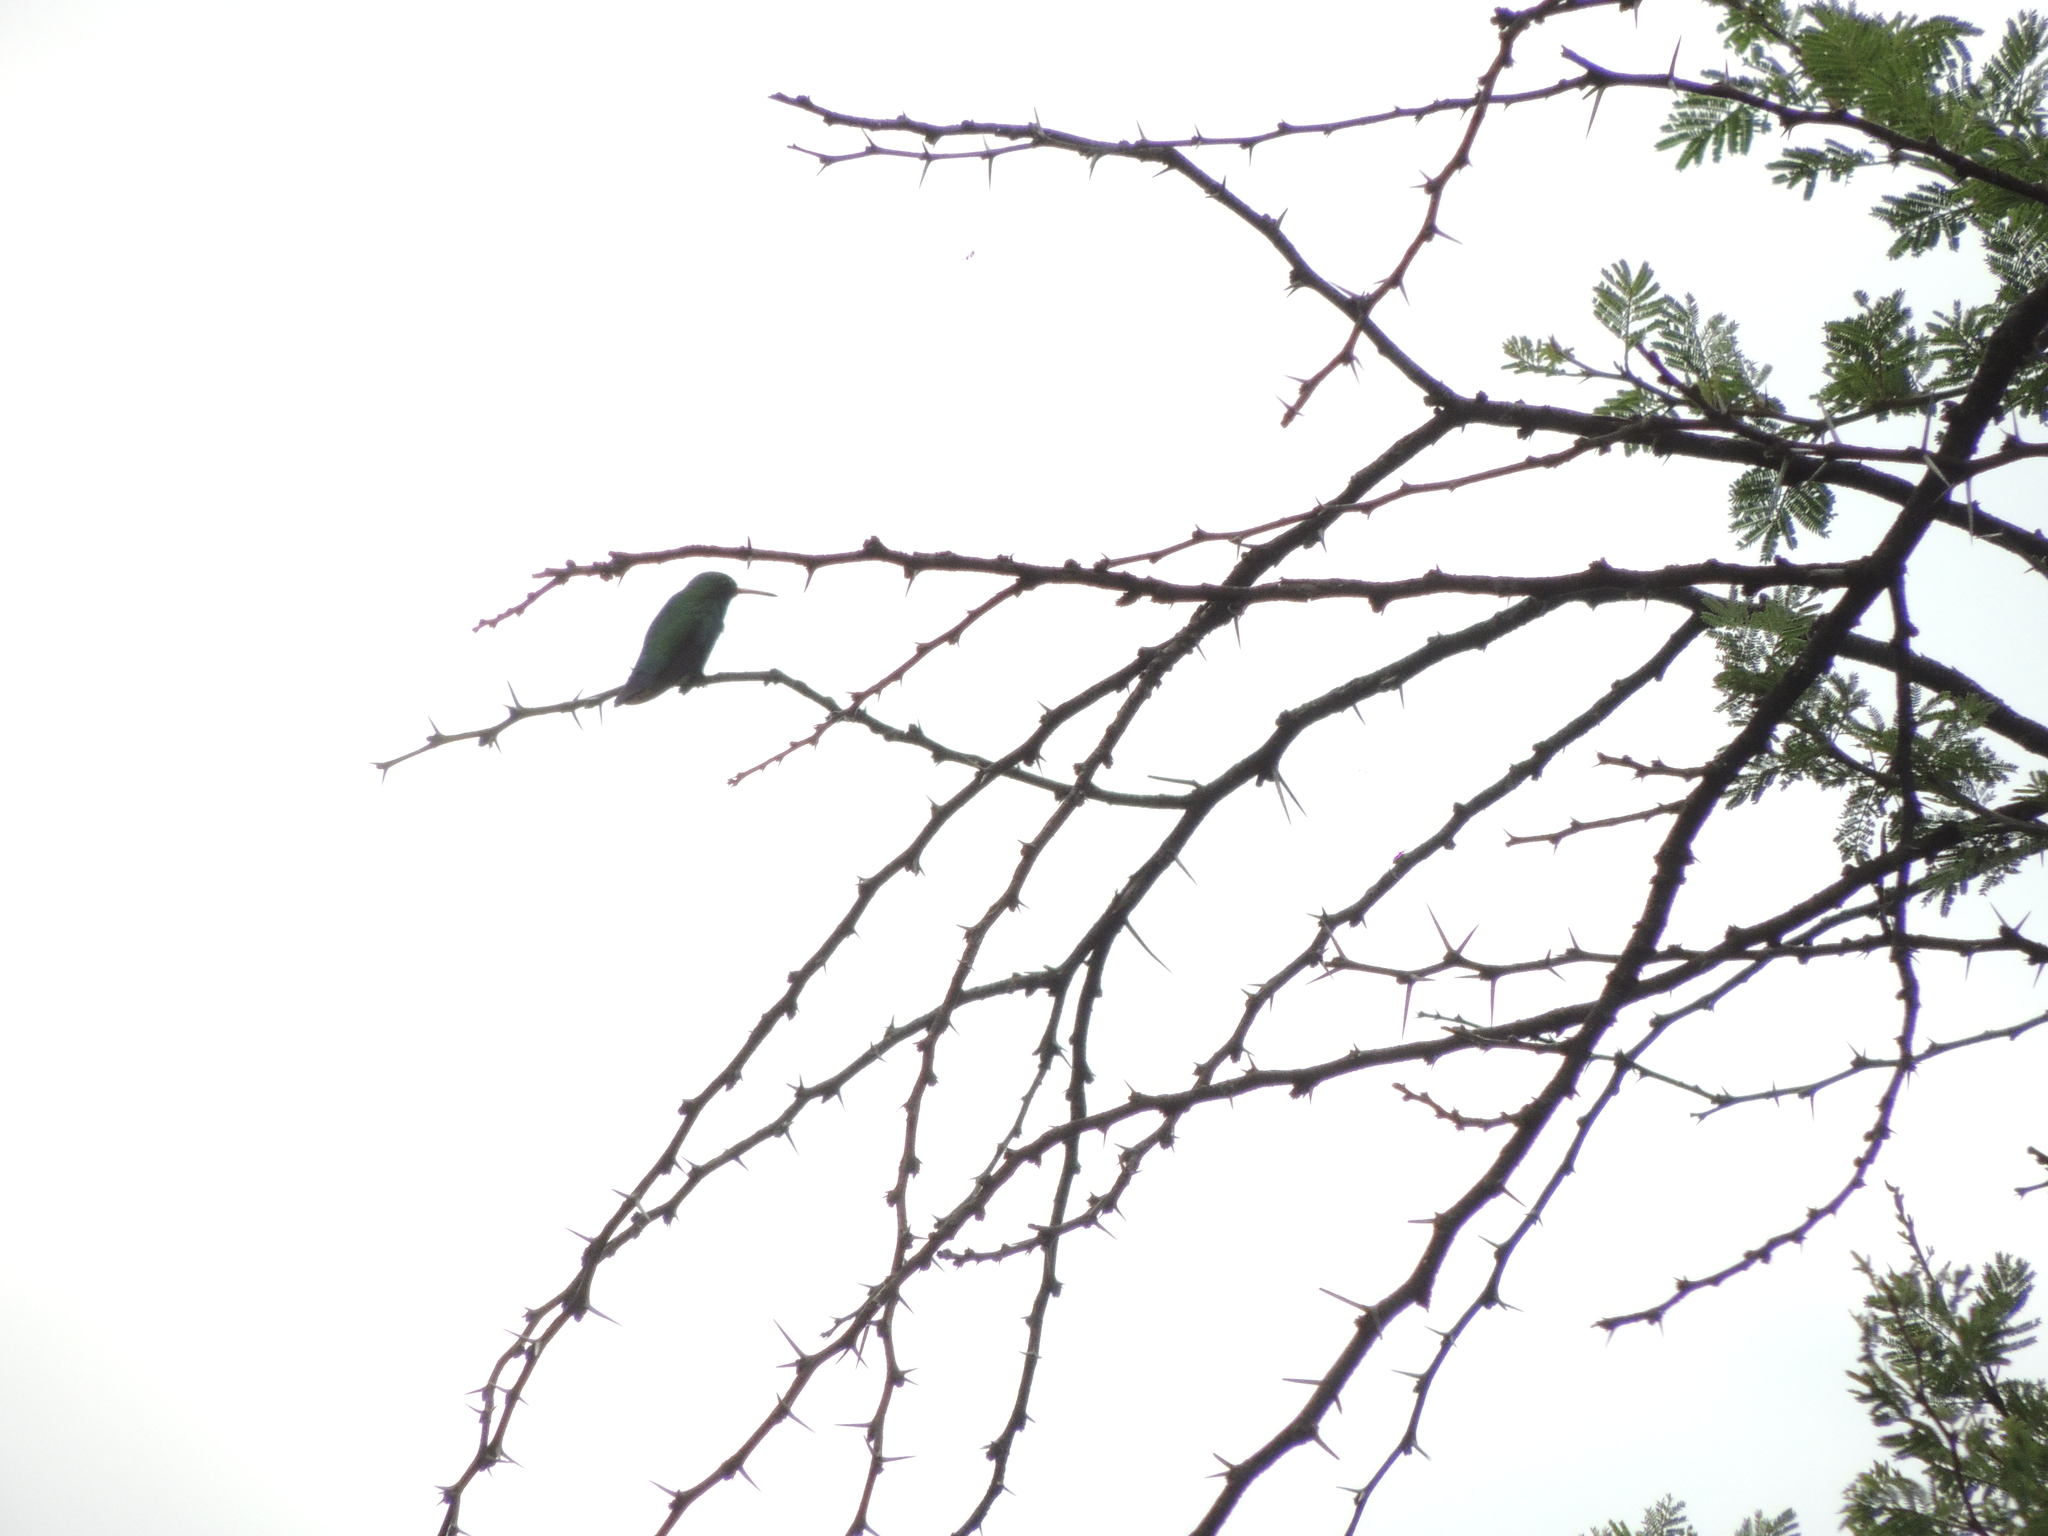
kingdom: Animalia
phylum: Chordata
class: Aves
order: Apodiformes
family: Trochilidae
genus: Chlorostilbon
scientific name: Chlorostilbon lucidus
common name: Glittering-bellied emerald
